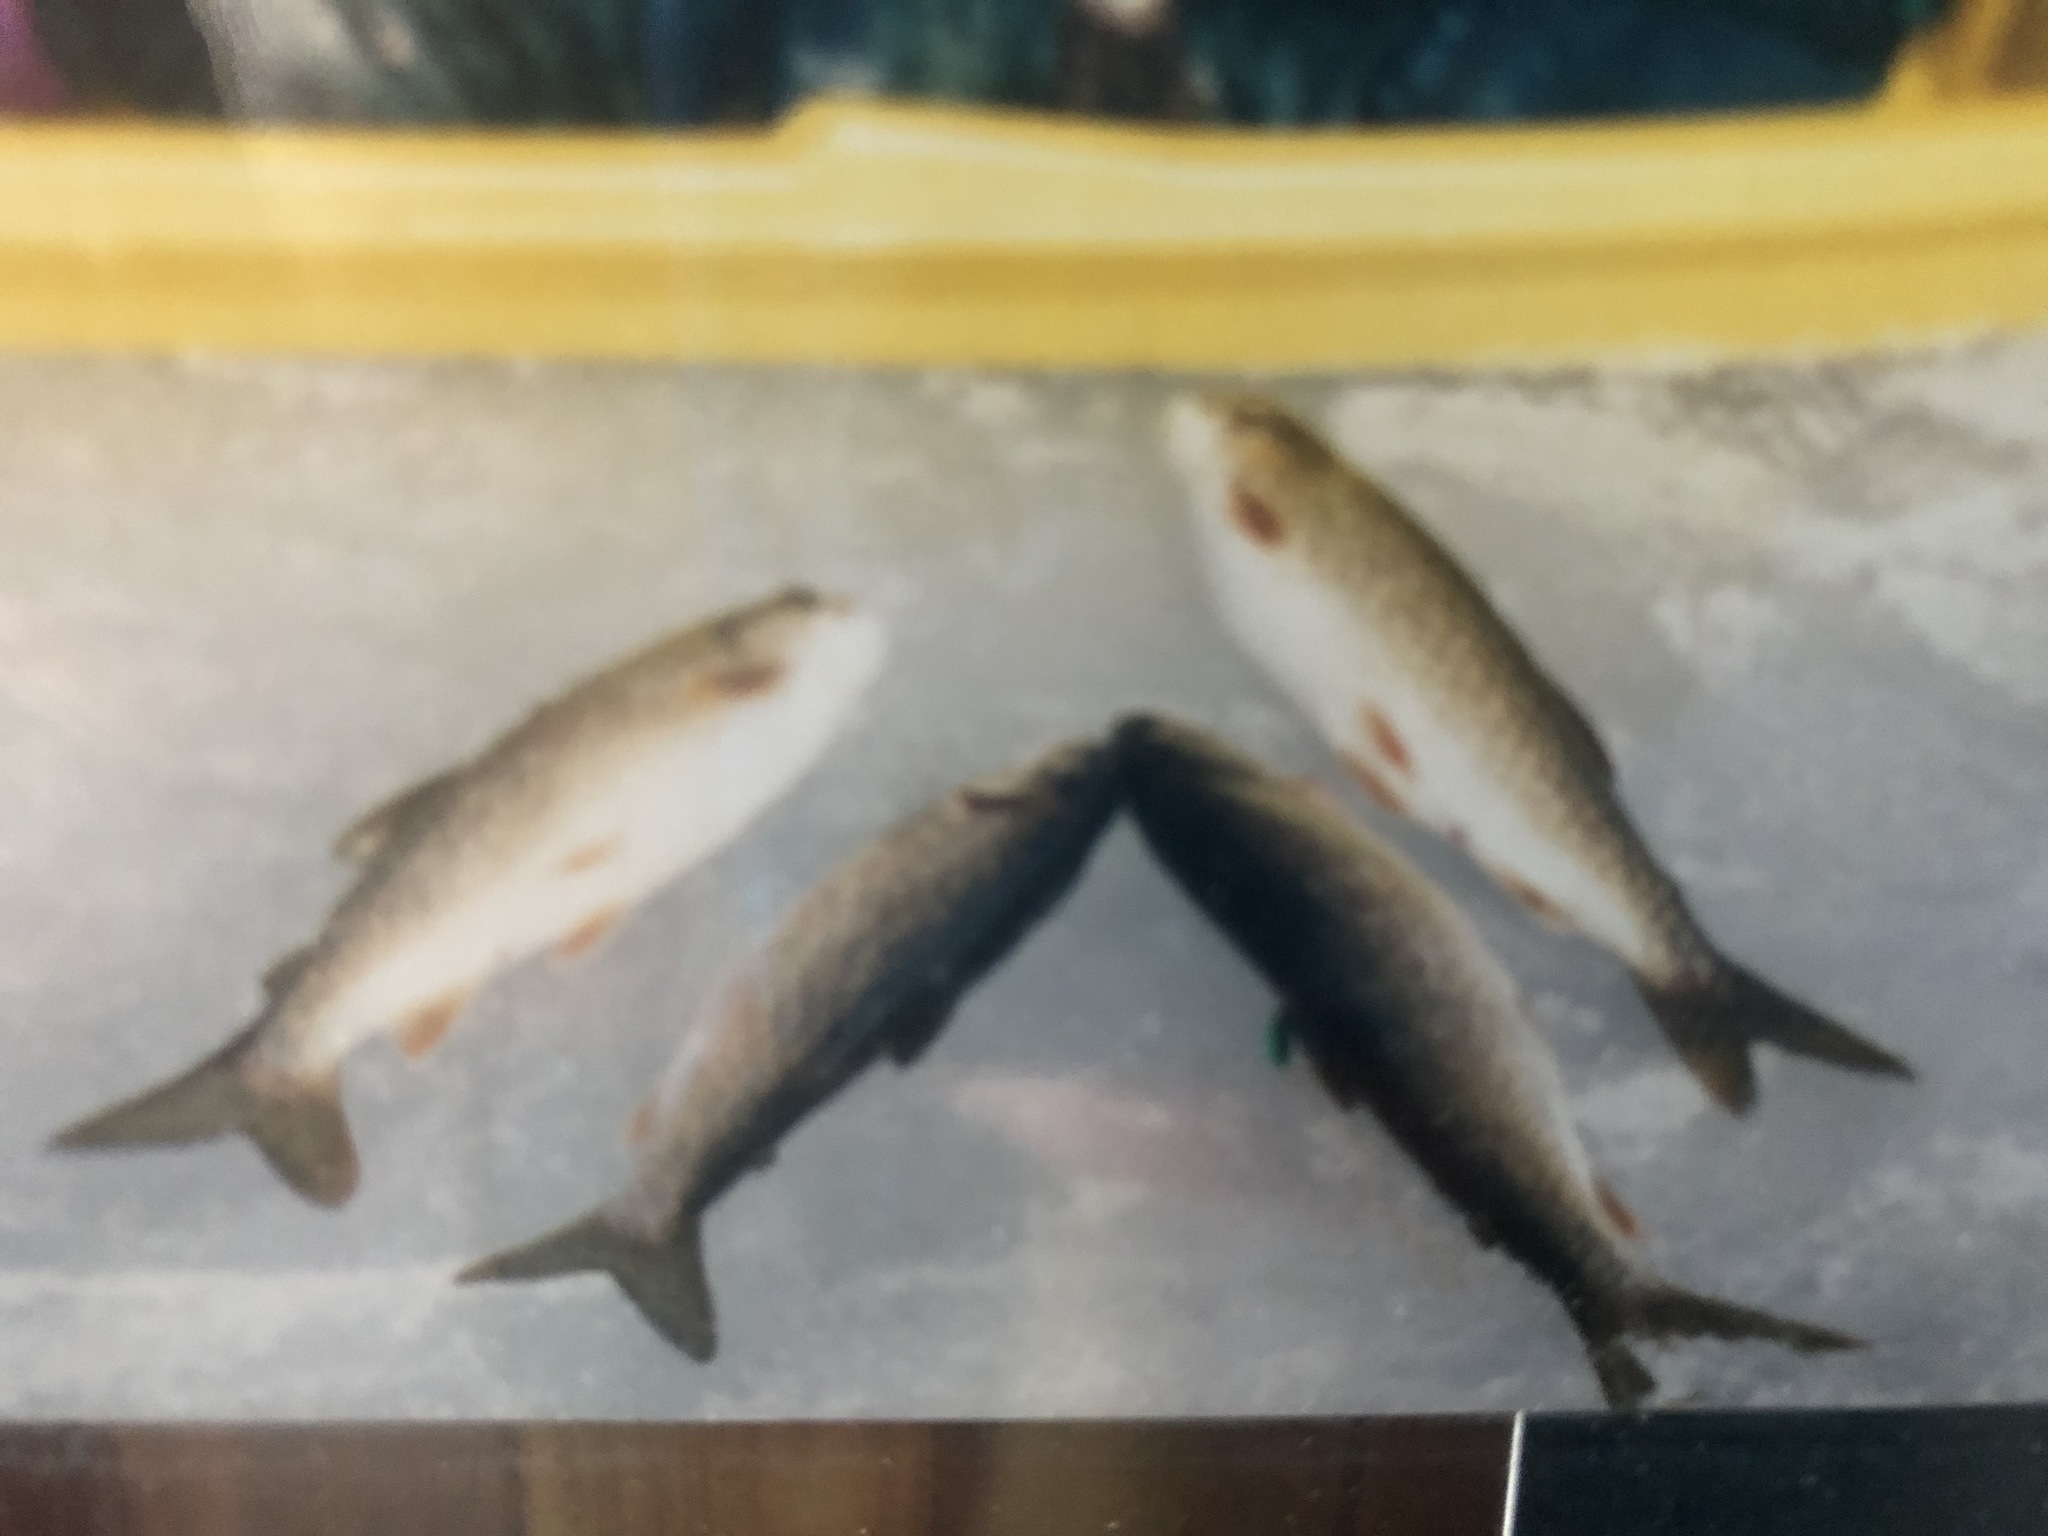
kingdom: Animalia
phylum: Chordata
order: Salmoniformes
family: Salmonidae
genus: Salvelinus
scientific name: Salvelinus namaycush
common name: American lake charr
